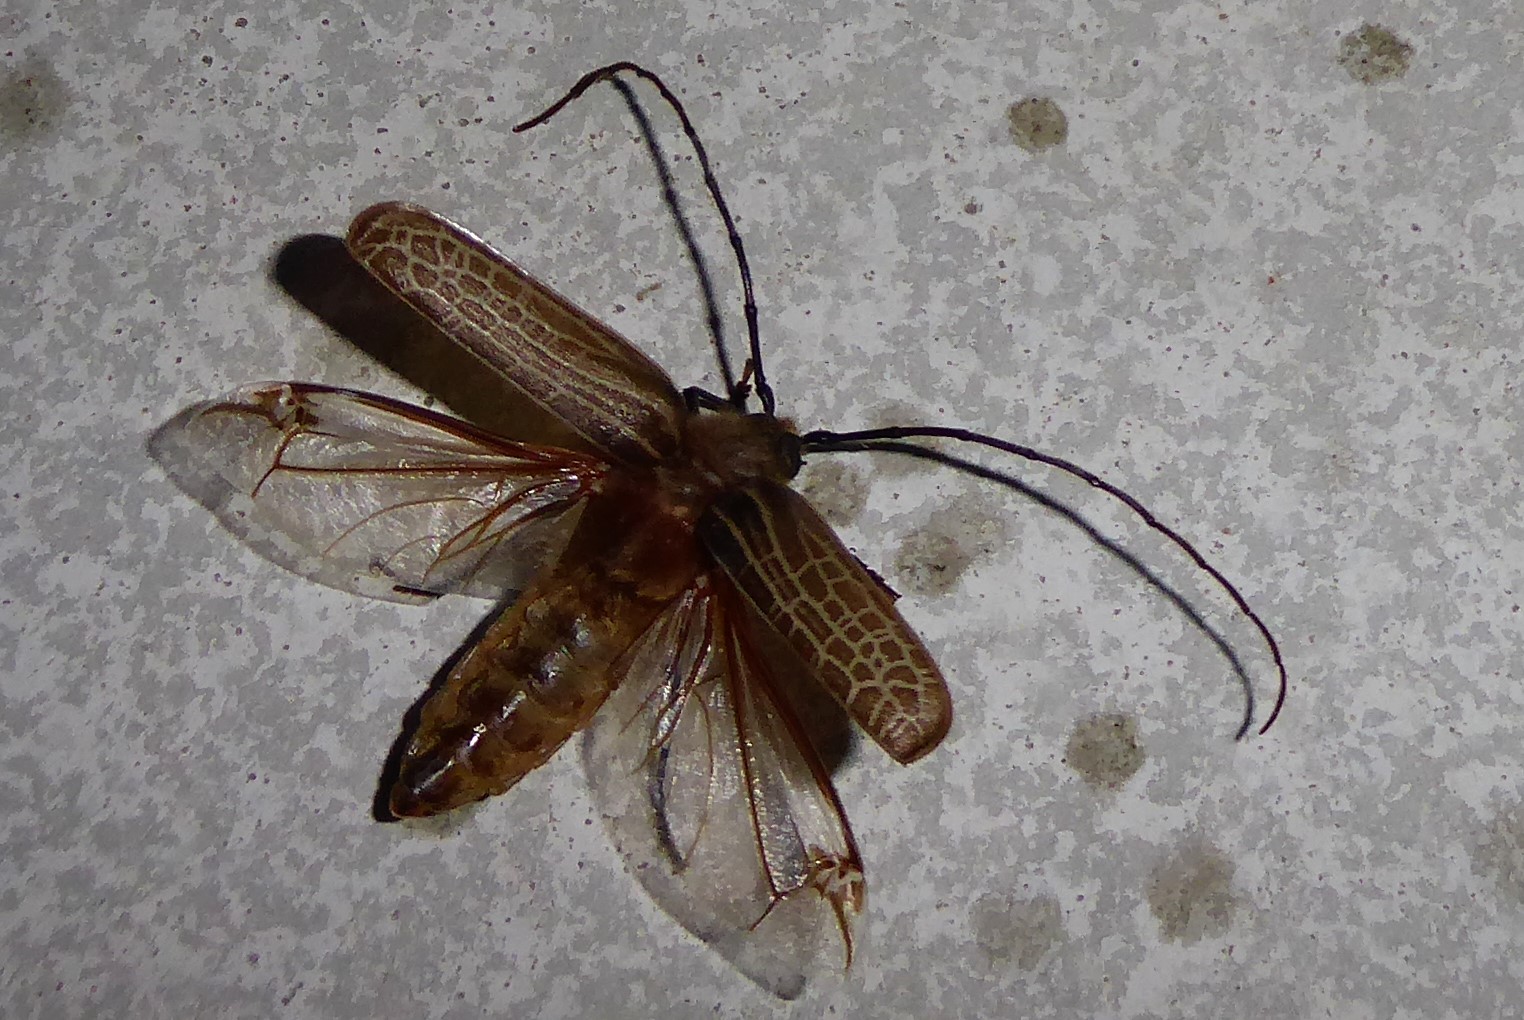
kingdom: Animalia
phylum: Arthropoda
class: Insecta
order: Coleoptera
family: Cerambycidae
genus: Prionoplus
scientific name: Prionoplus reticularis
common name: Huhu beetle
